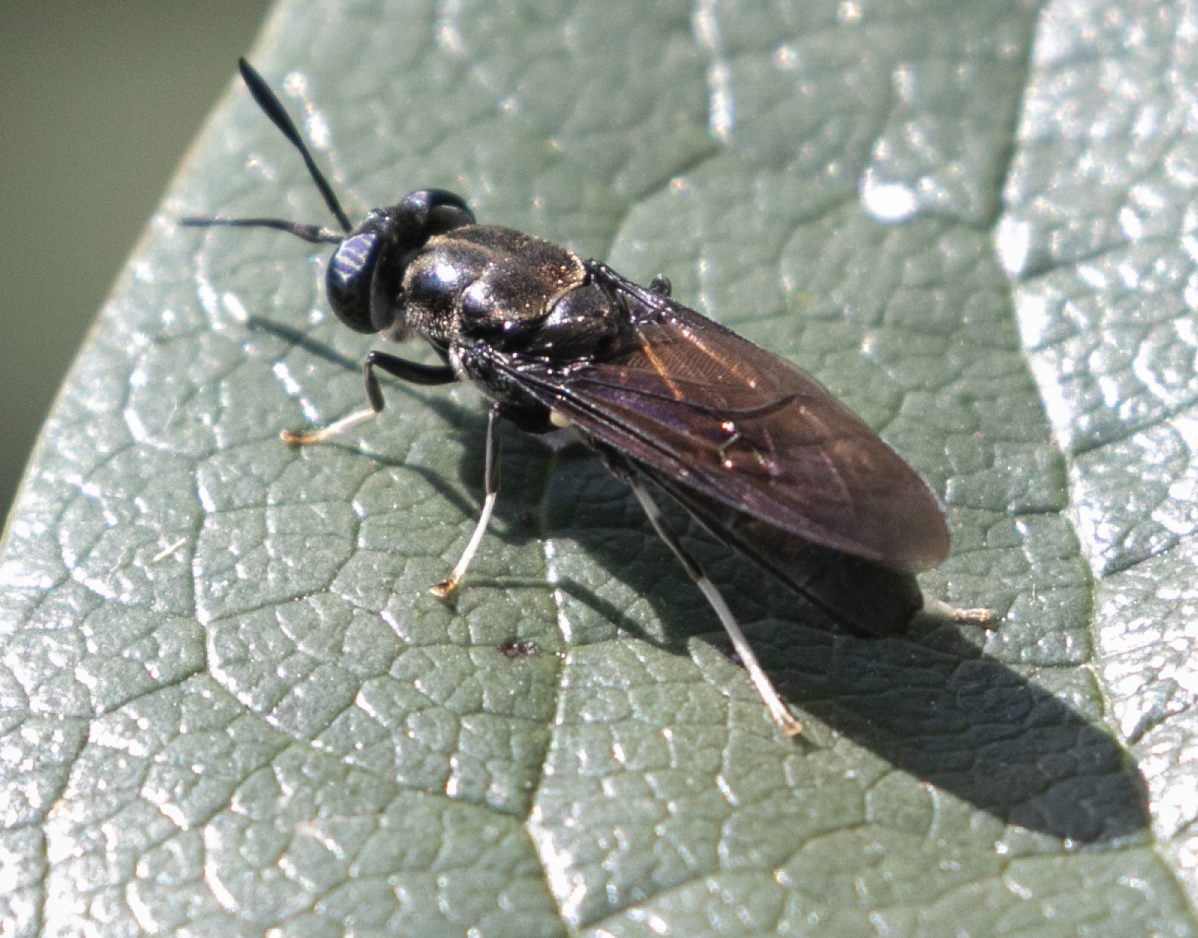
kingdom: Animalia
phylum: Arthropoda
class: Insecta
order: Diptera
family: Stratiomyidae
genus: Hermetia
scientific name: Hermetia illucens
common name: Black soldier fly
